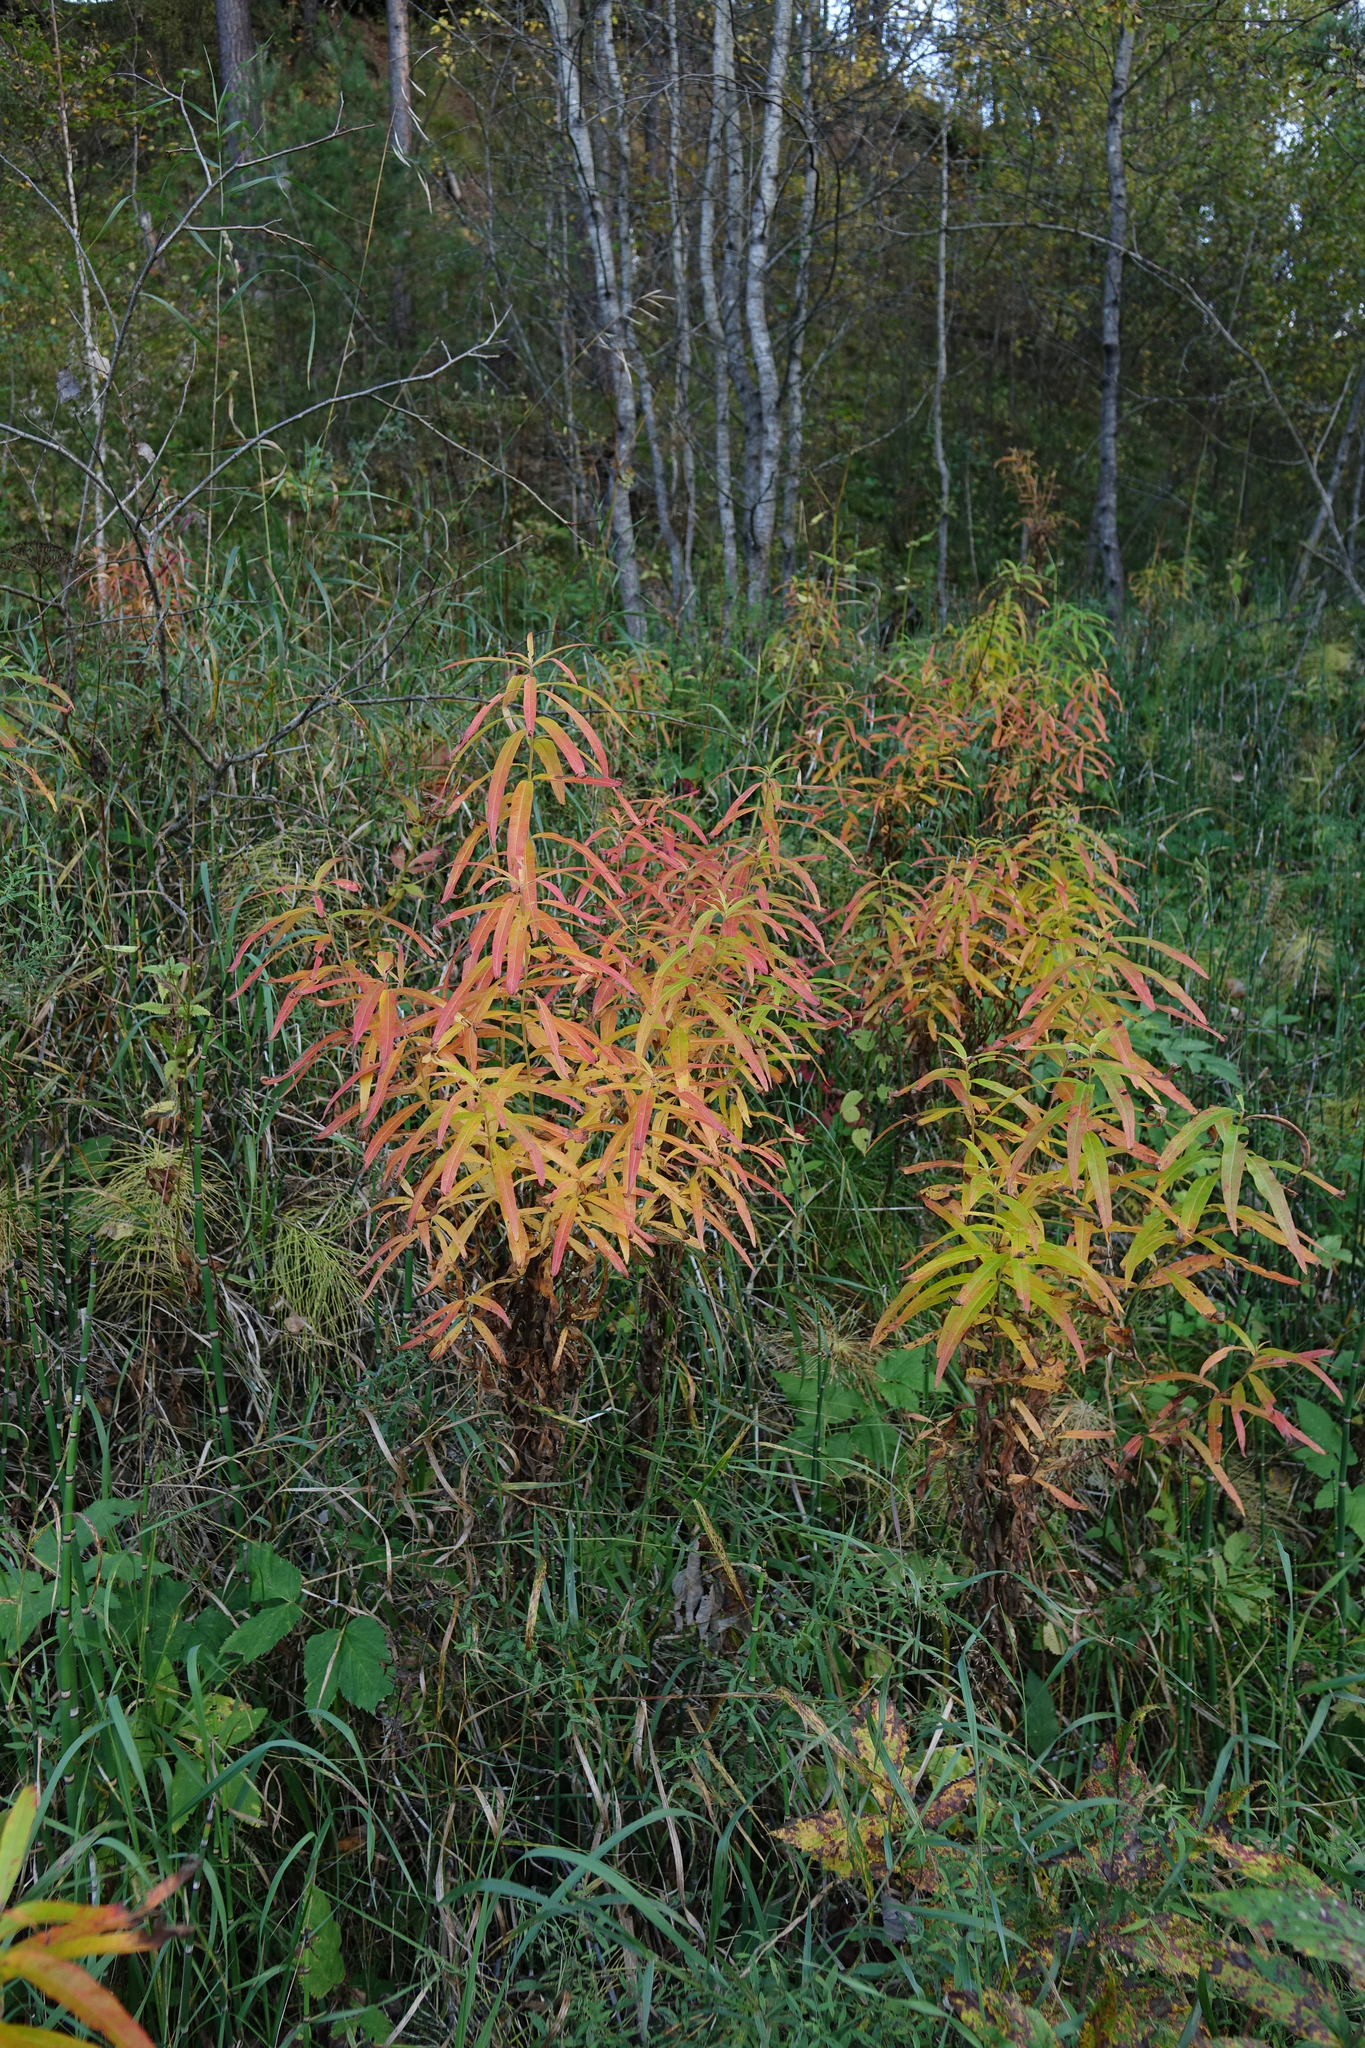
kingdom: Plantae
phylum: Tracheophyta
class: Magnoliopsida
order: Myrtales
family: Onagraceae
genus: Chamaenerion
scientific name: Chamaenerion angustifolium
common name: Fireweed
